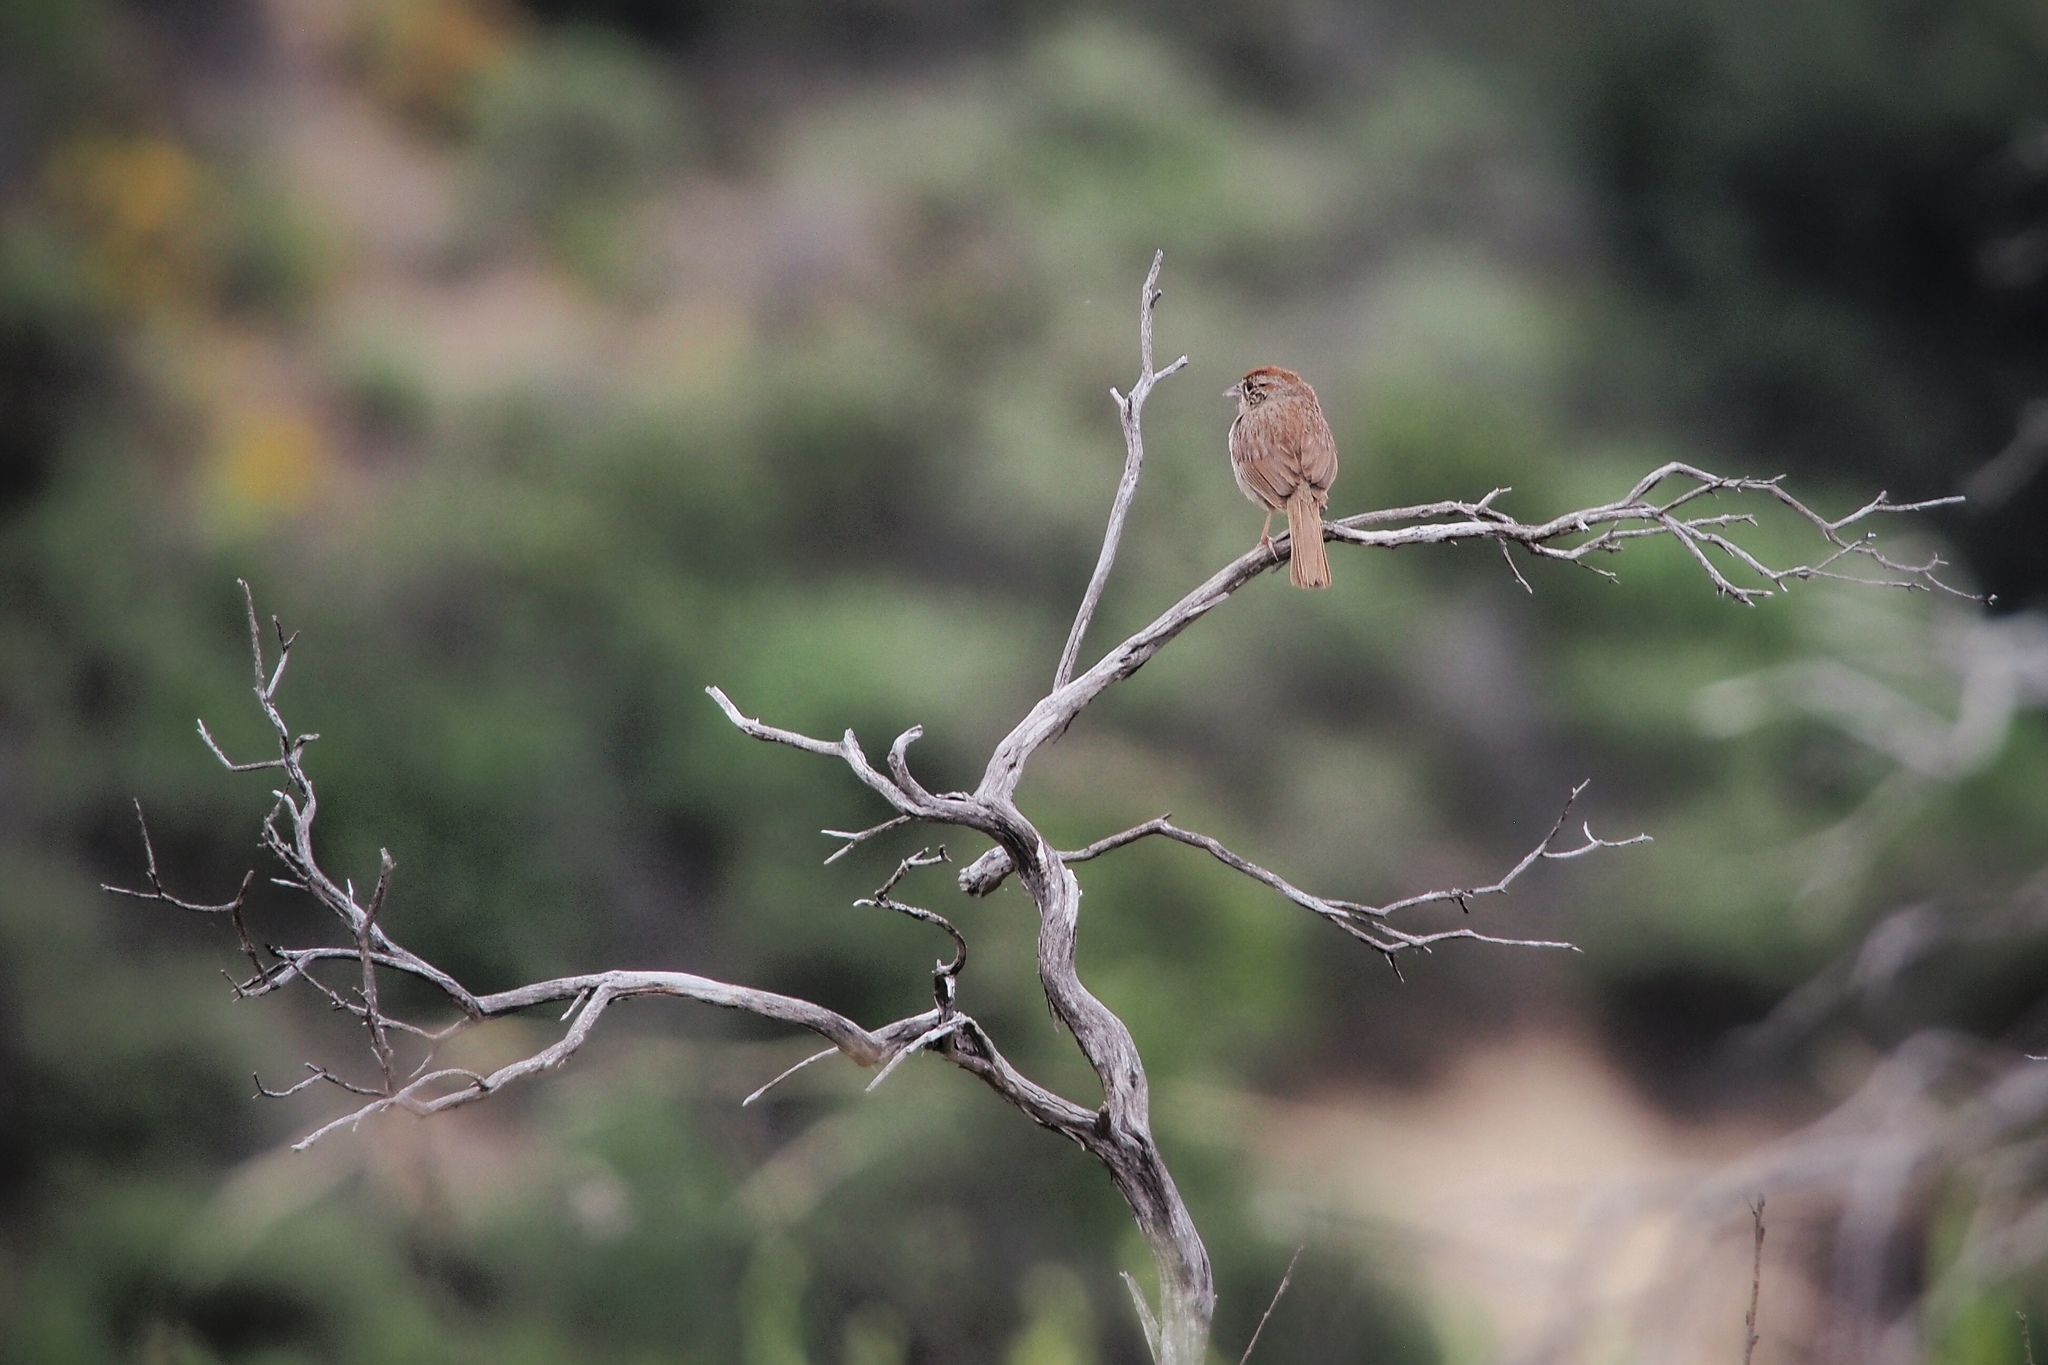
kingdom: Animalia
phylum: Chordata
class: Aves
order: Passeriformes
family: Passerellidae
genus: Aimophila
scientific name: Aimophila ruficeps
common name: Rufous-crowned sparrow
